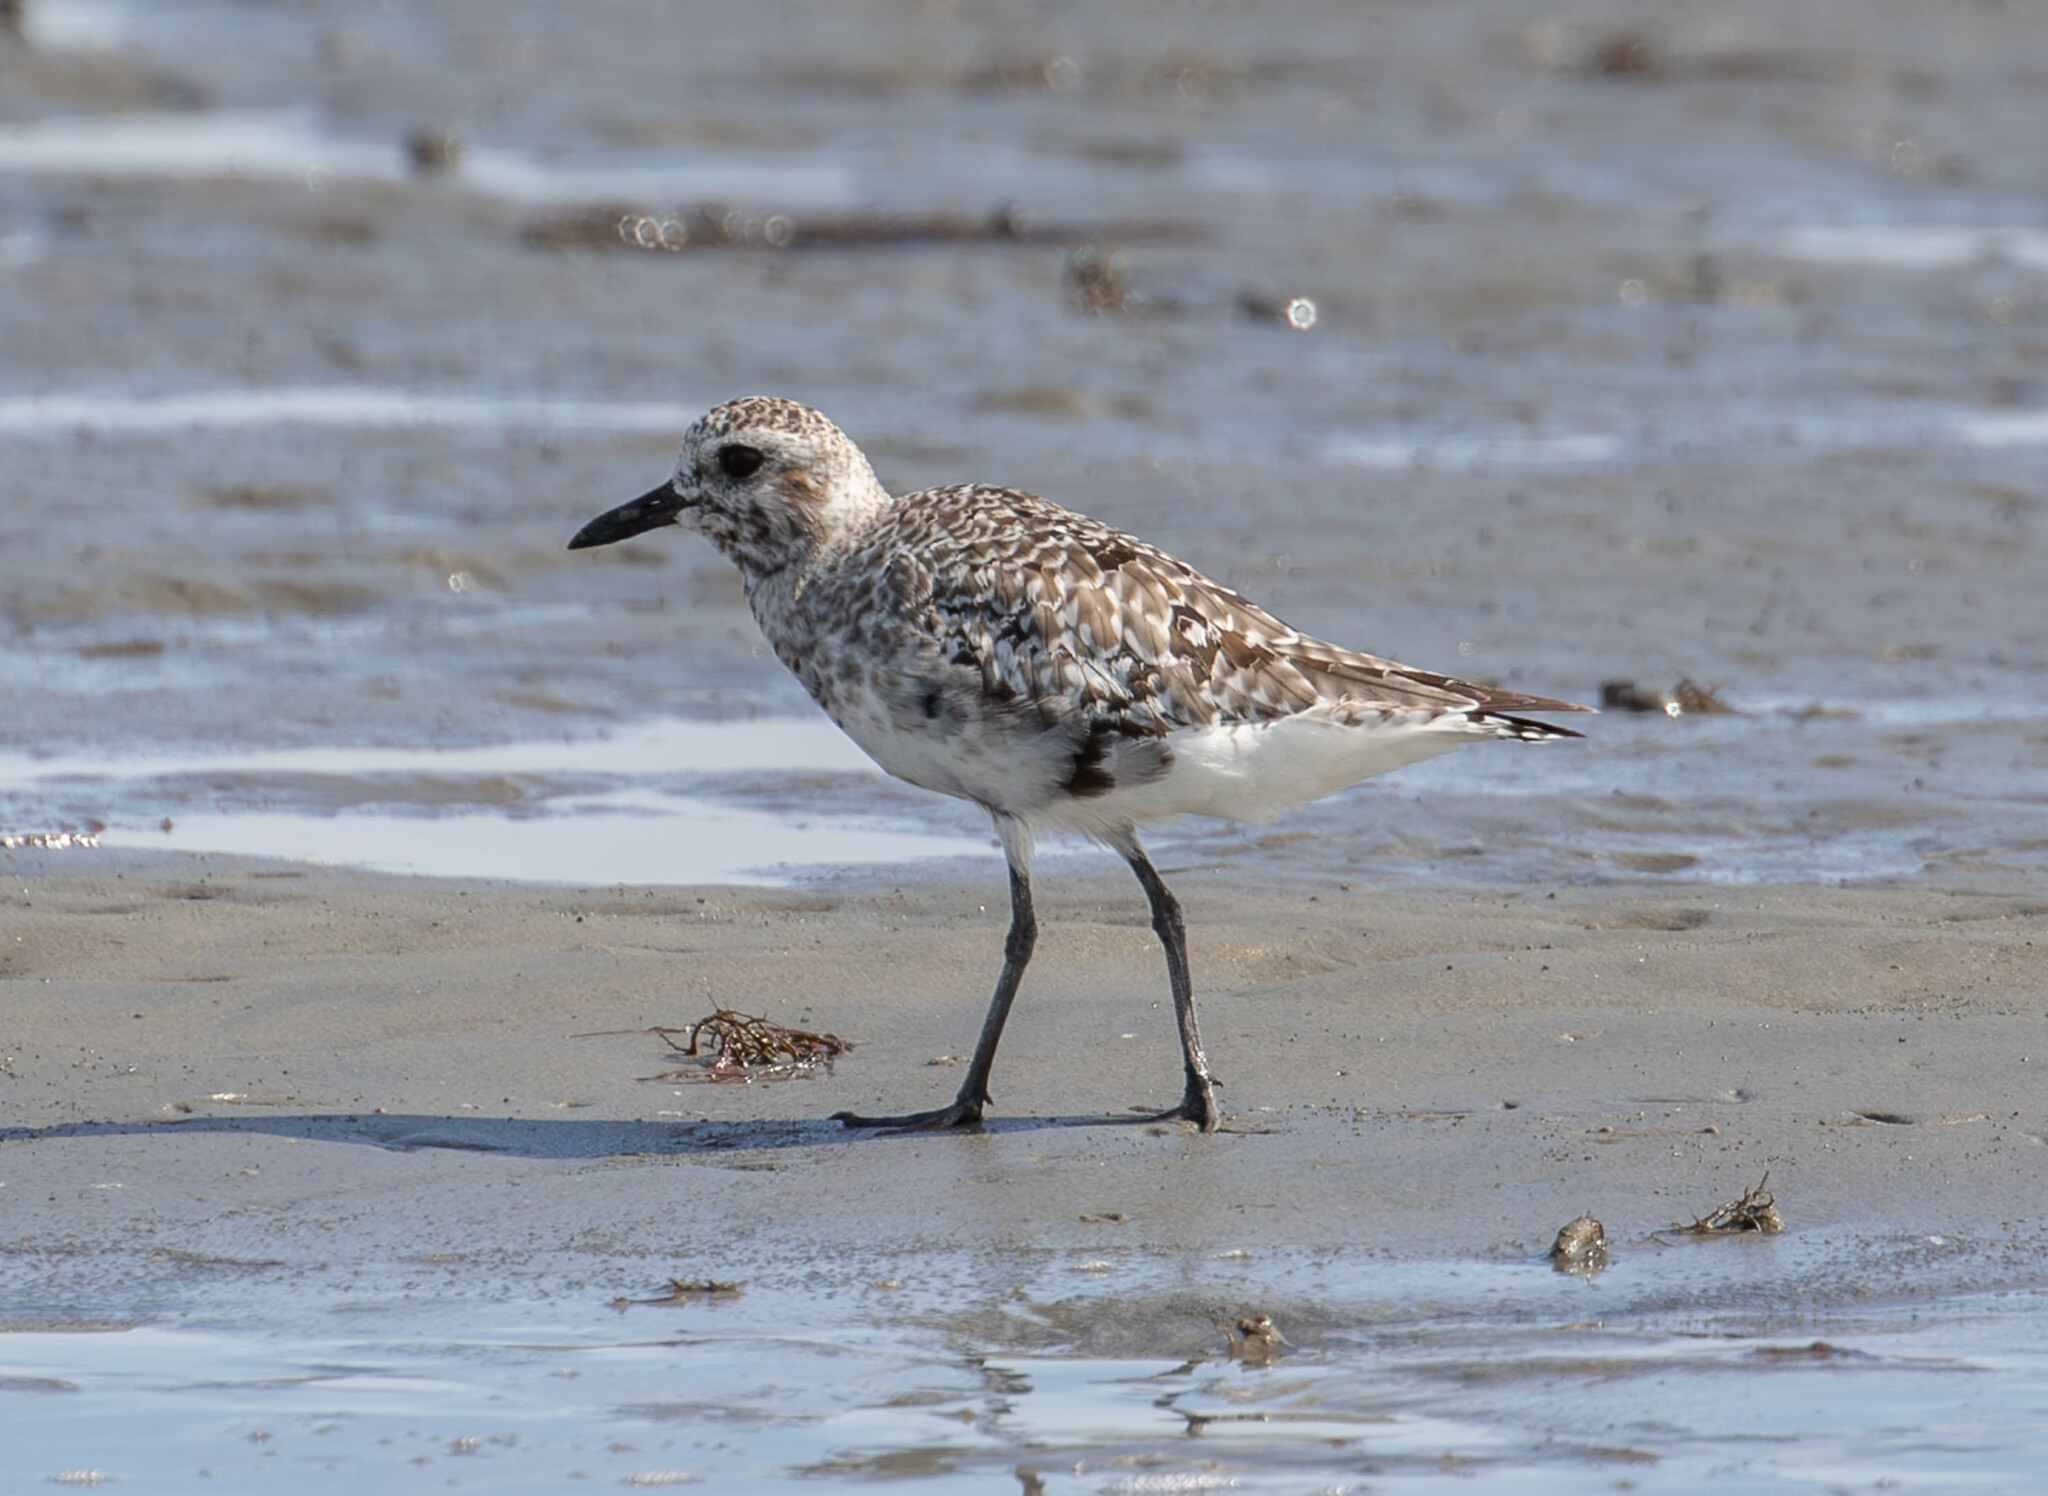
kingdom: Animalia
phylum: Chordata
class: Aves
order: Charadriiformes
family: Charadriidae
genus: Pluvialis
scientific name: Pluvialis squatarola
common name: Grey plover
